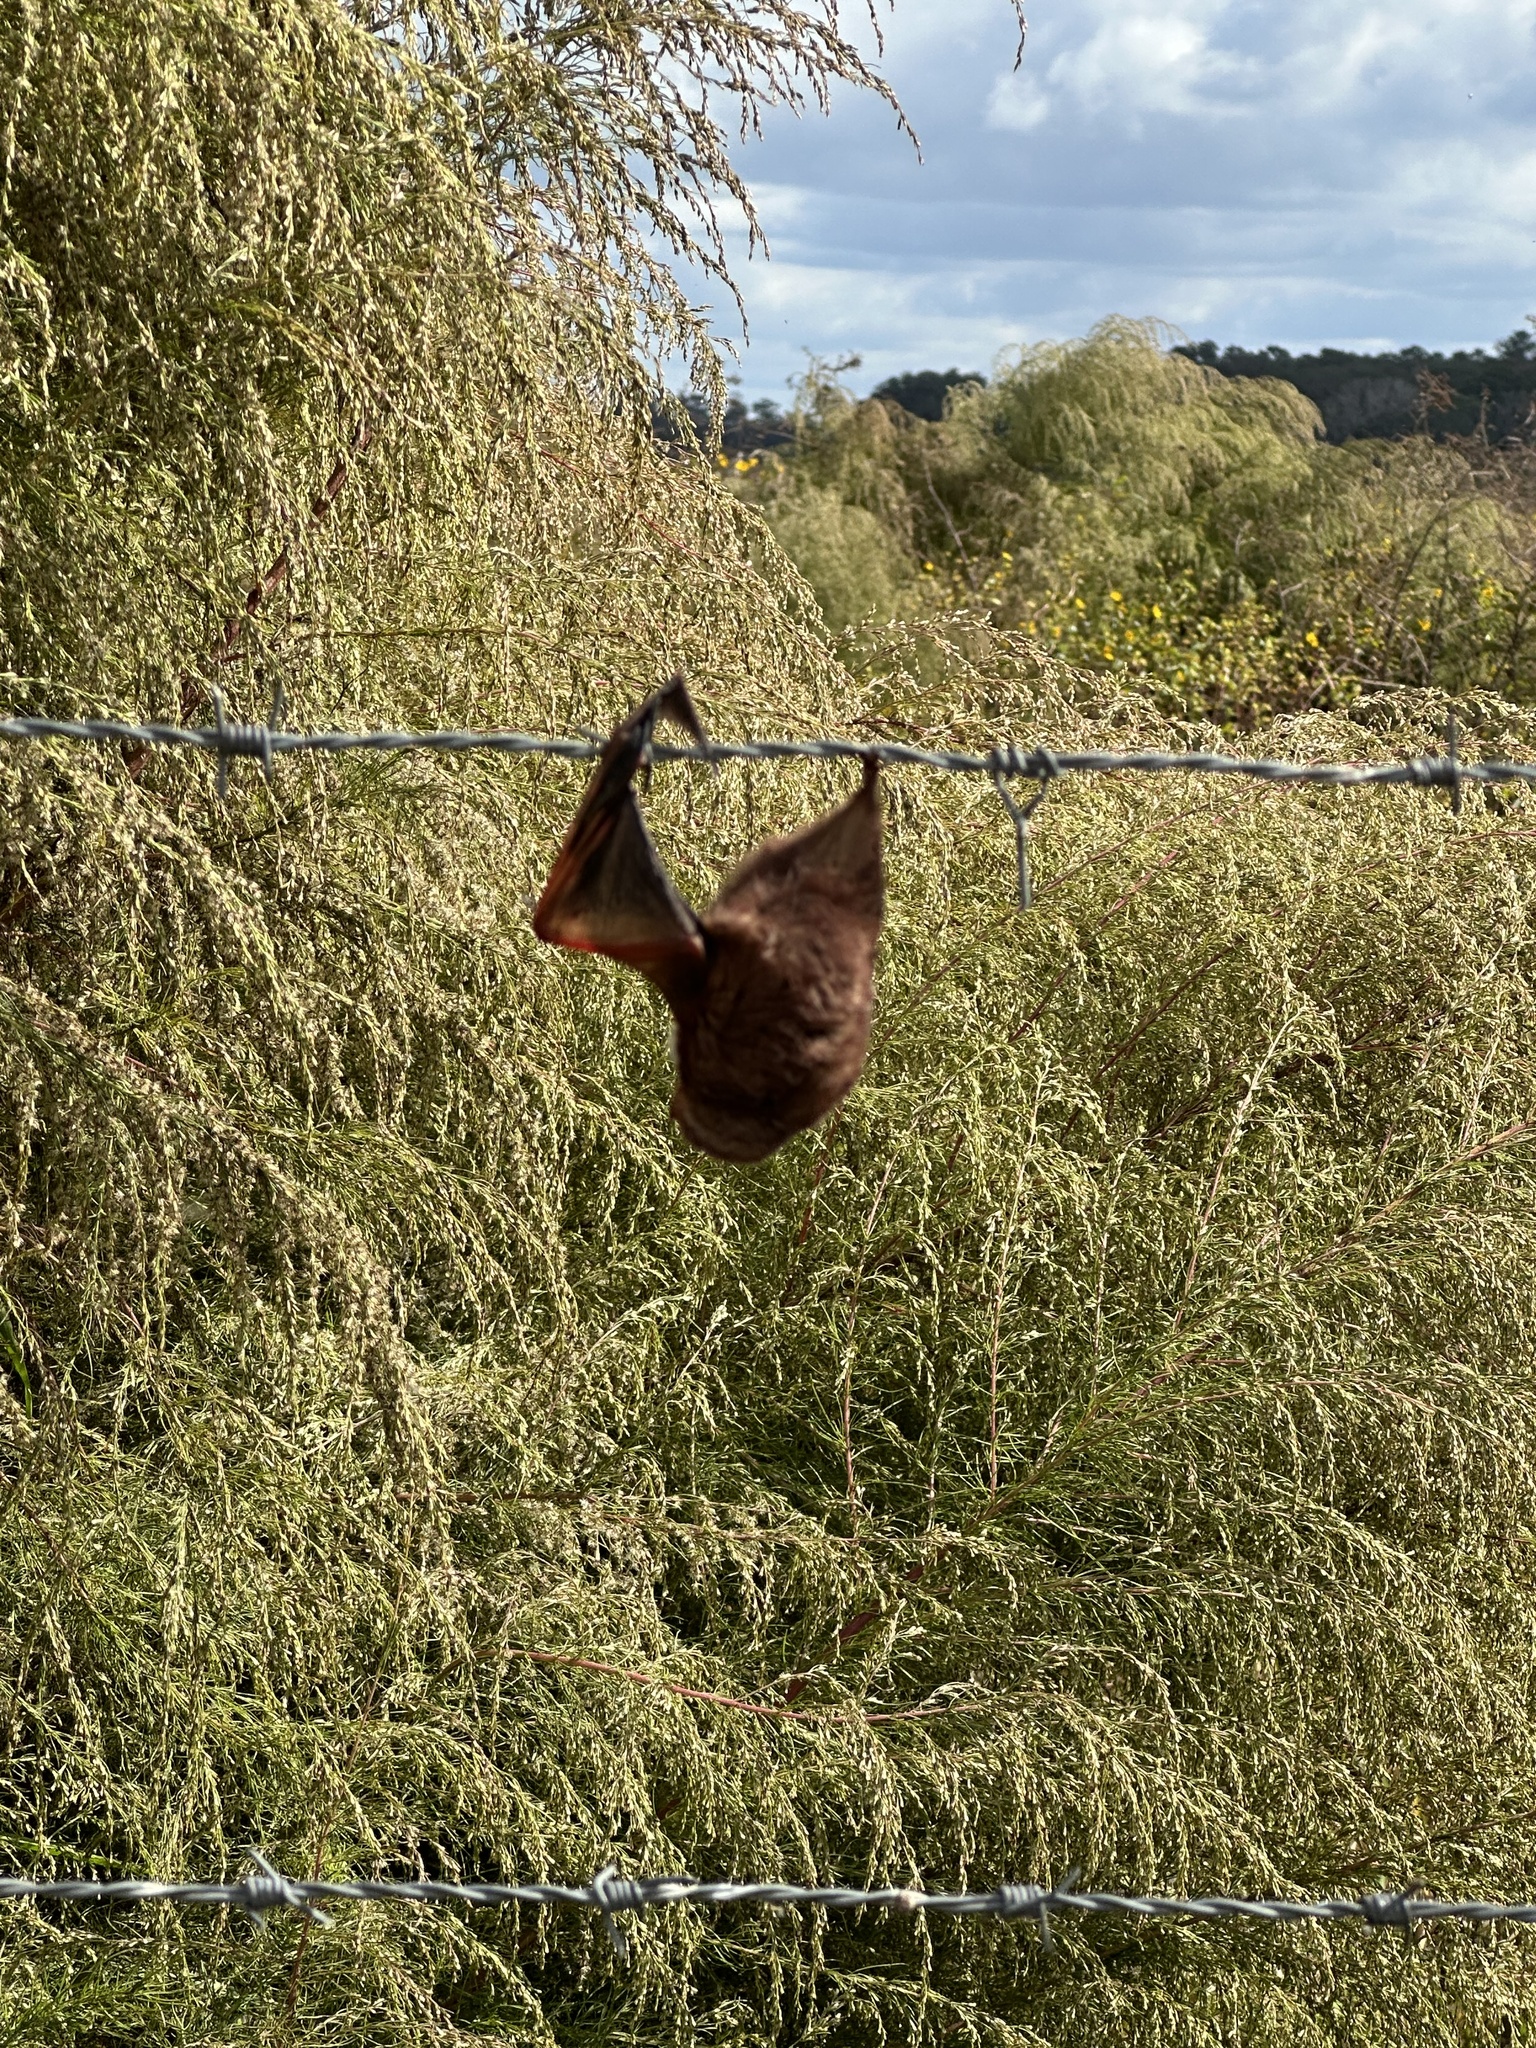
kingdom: Animalia
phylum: Chordata
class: Mammalia
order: Chiroptera
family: Vespertilionidae
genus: Lasiurus
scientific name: Lasiurus seminolus
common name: Seminole bat
